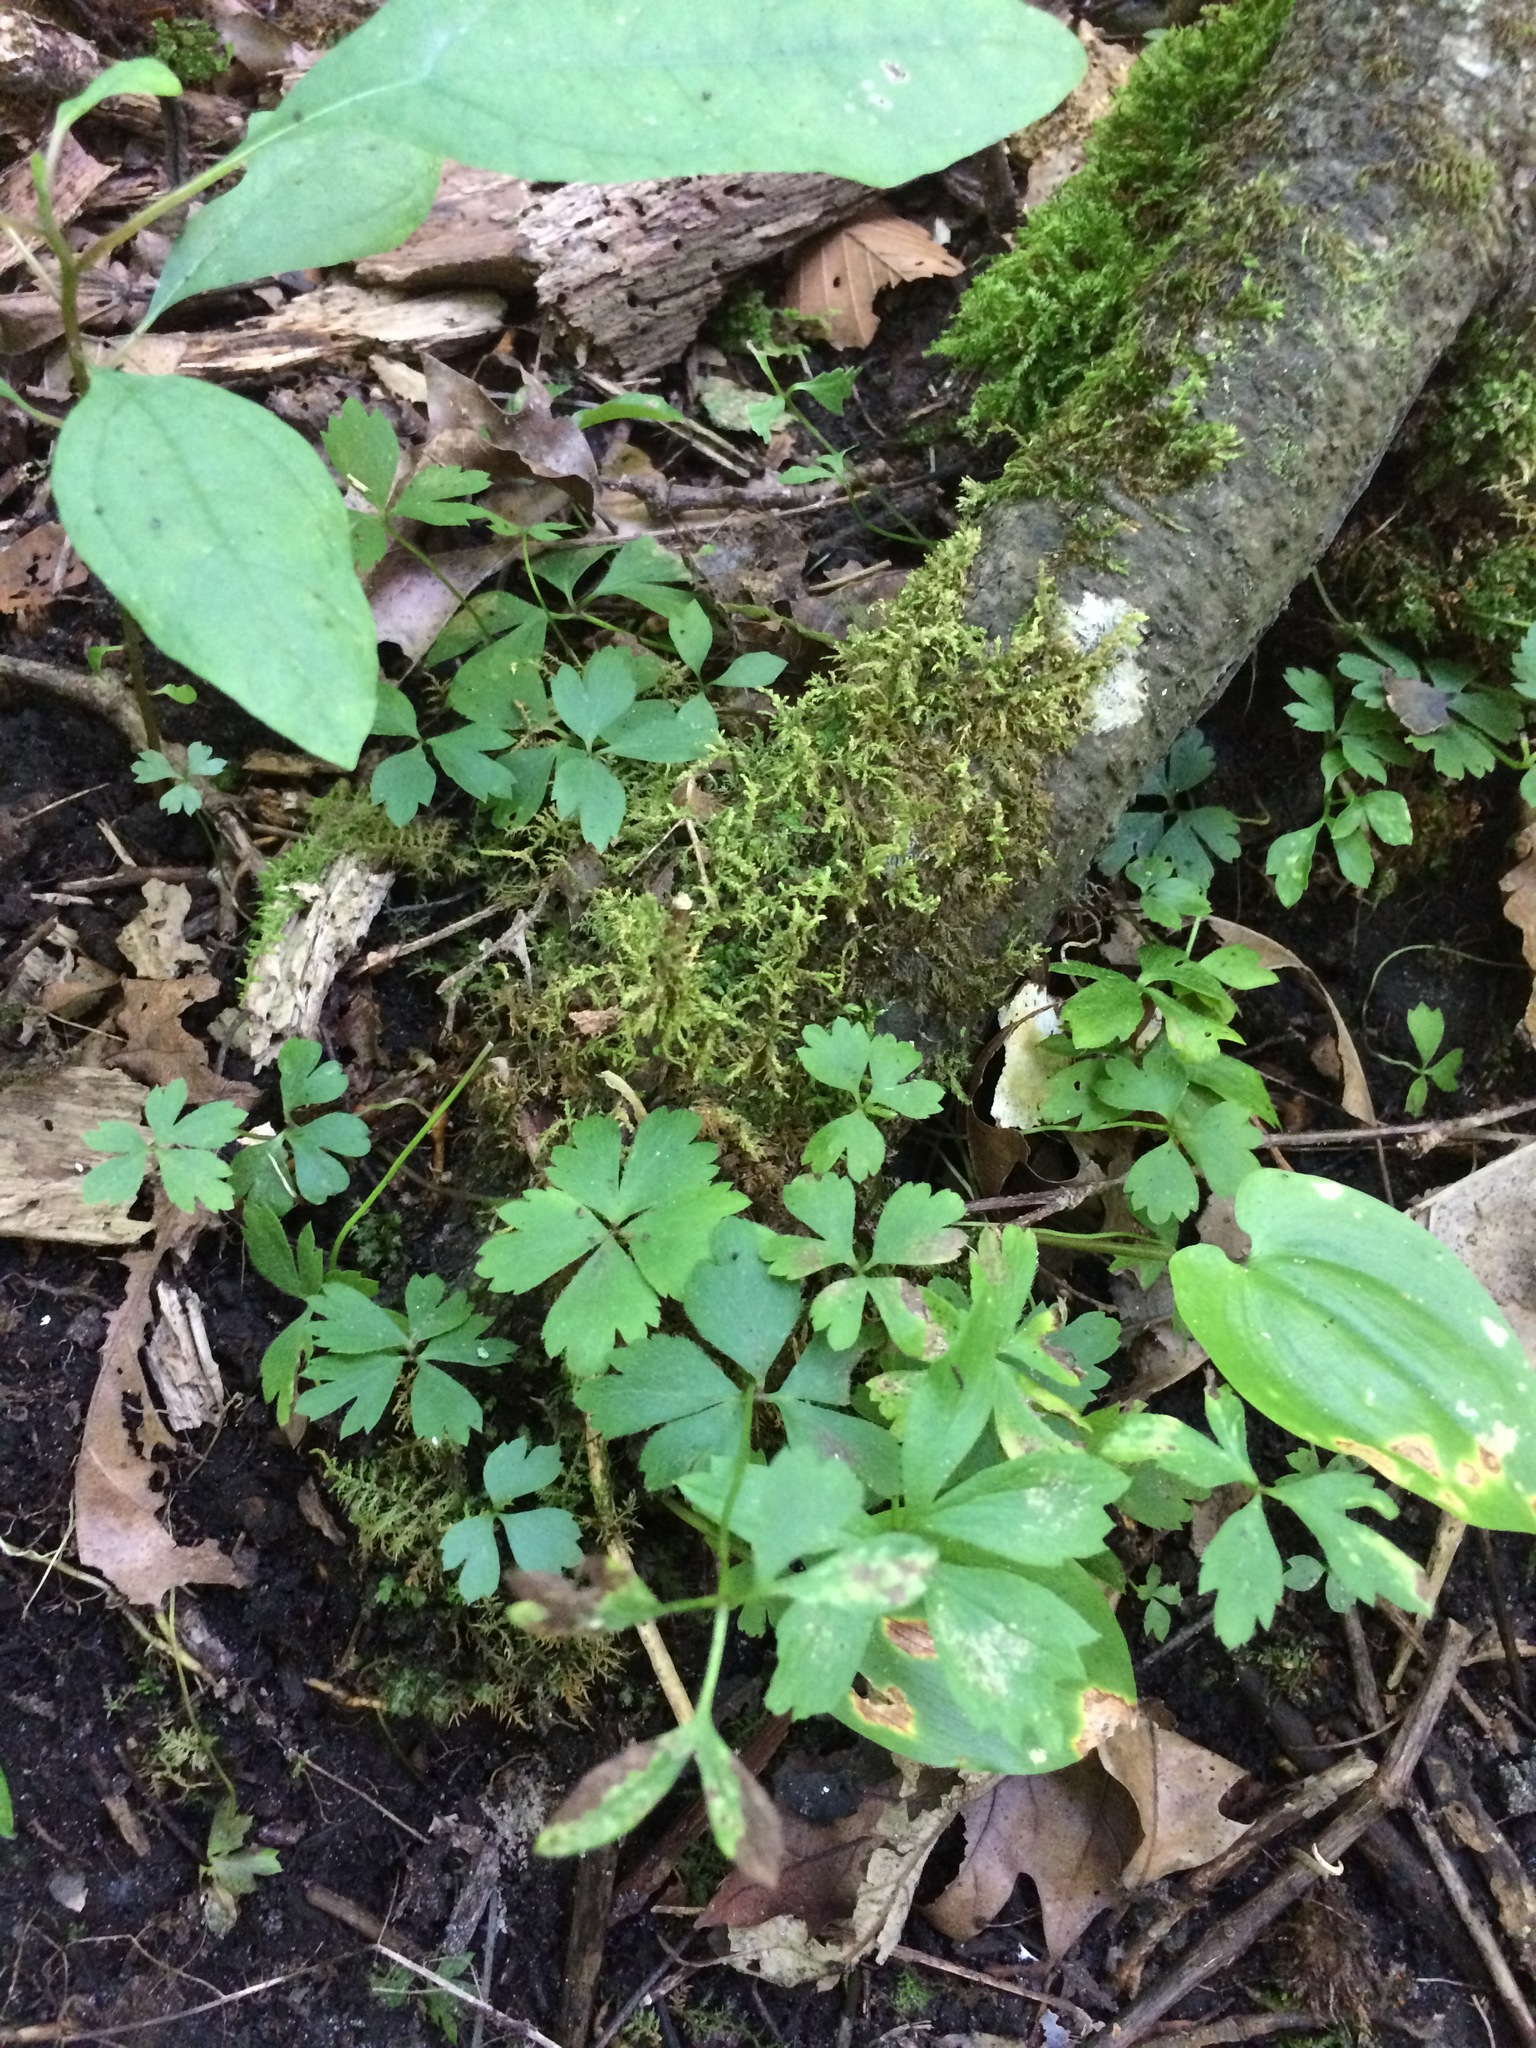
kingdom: Plantae
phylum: Tracheophyta
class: Magnoliopsida
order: Ranunculales
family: Ranunculaceae
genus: Anemone
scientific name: Anemone quinquefolia
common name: Wood anemone
